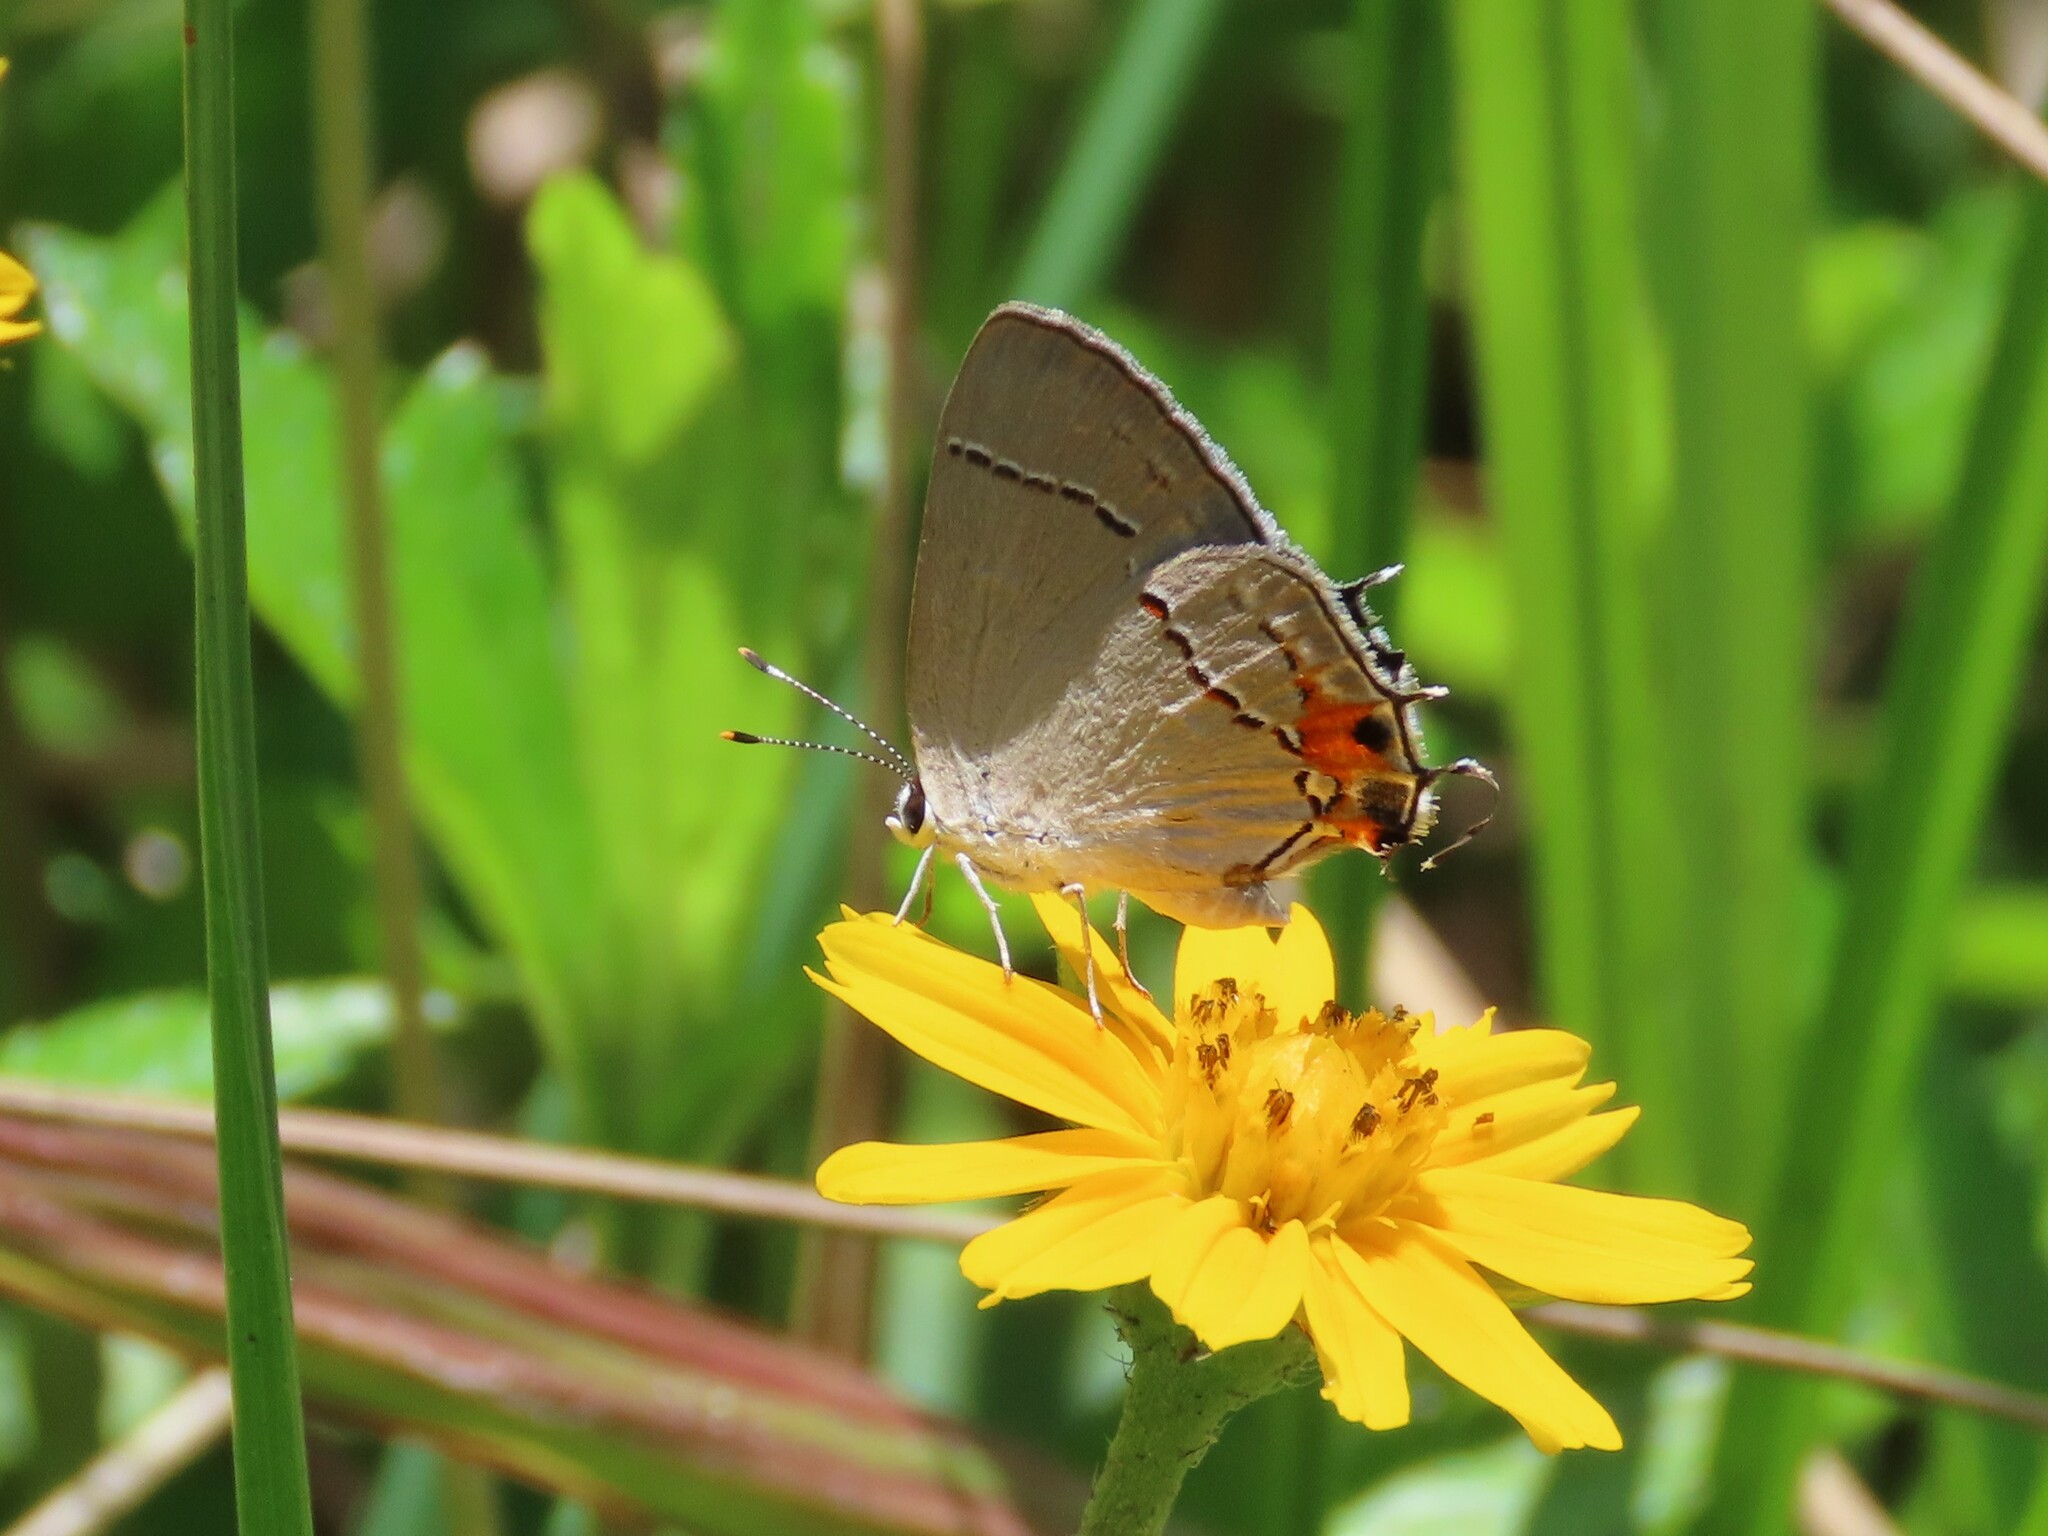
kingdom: Animalia
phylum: Arthropoda
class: Insecta
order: Lepidoptera
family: Lycaenidae
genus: Strymon
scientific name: Strymon melinus
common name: Gray hairstreak
